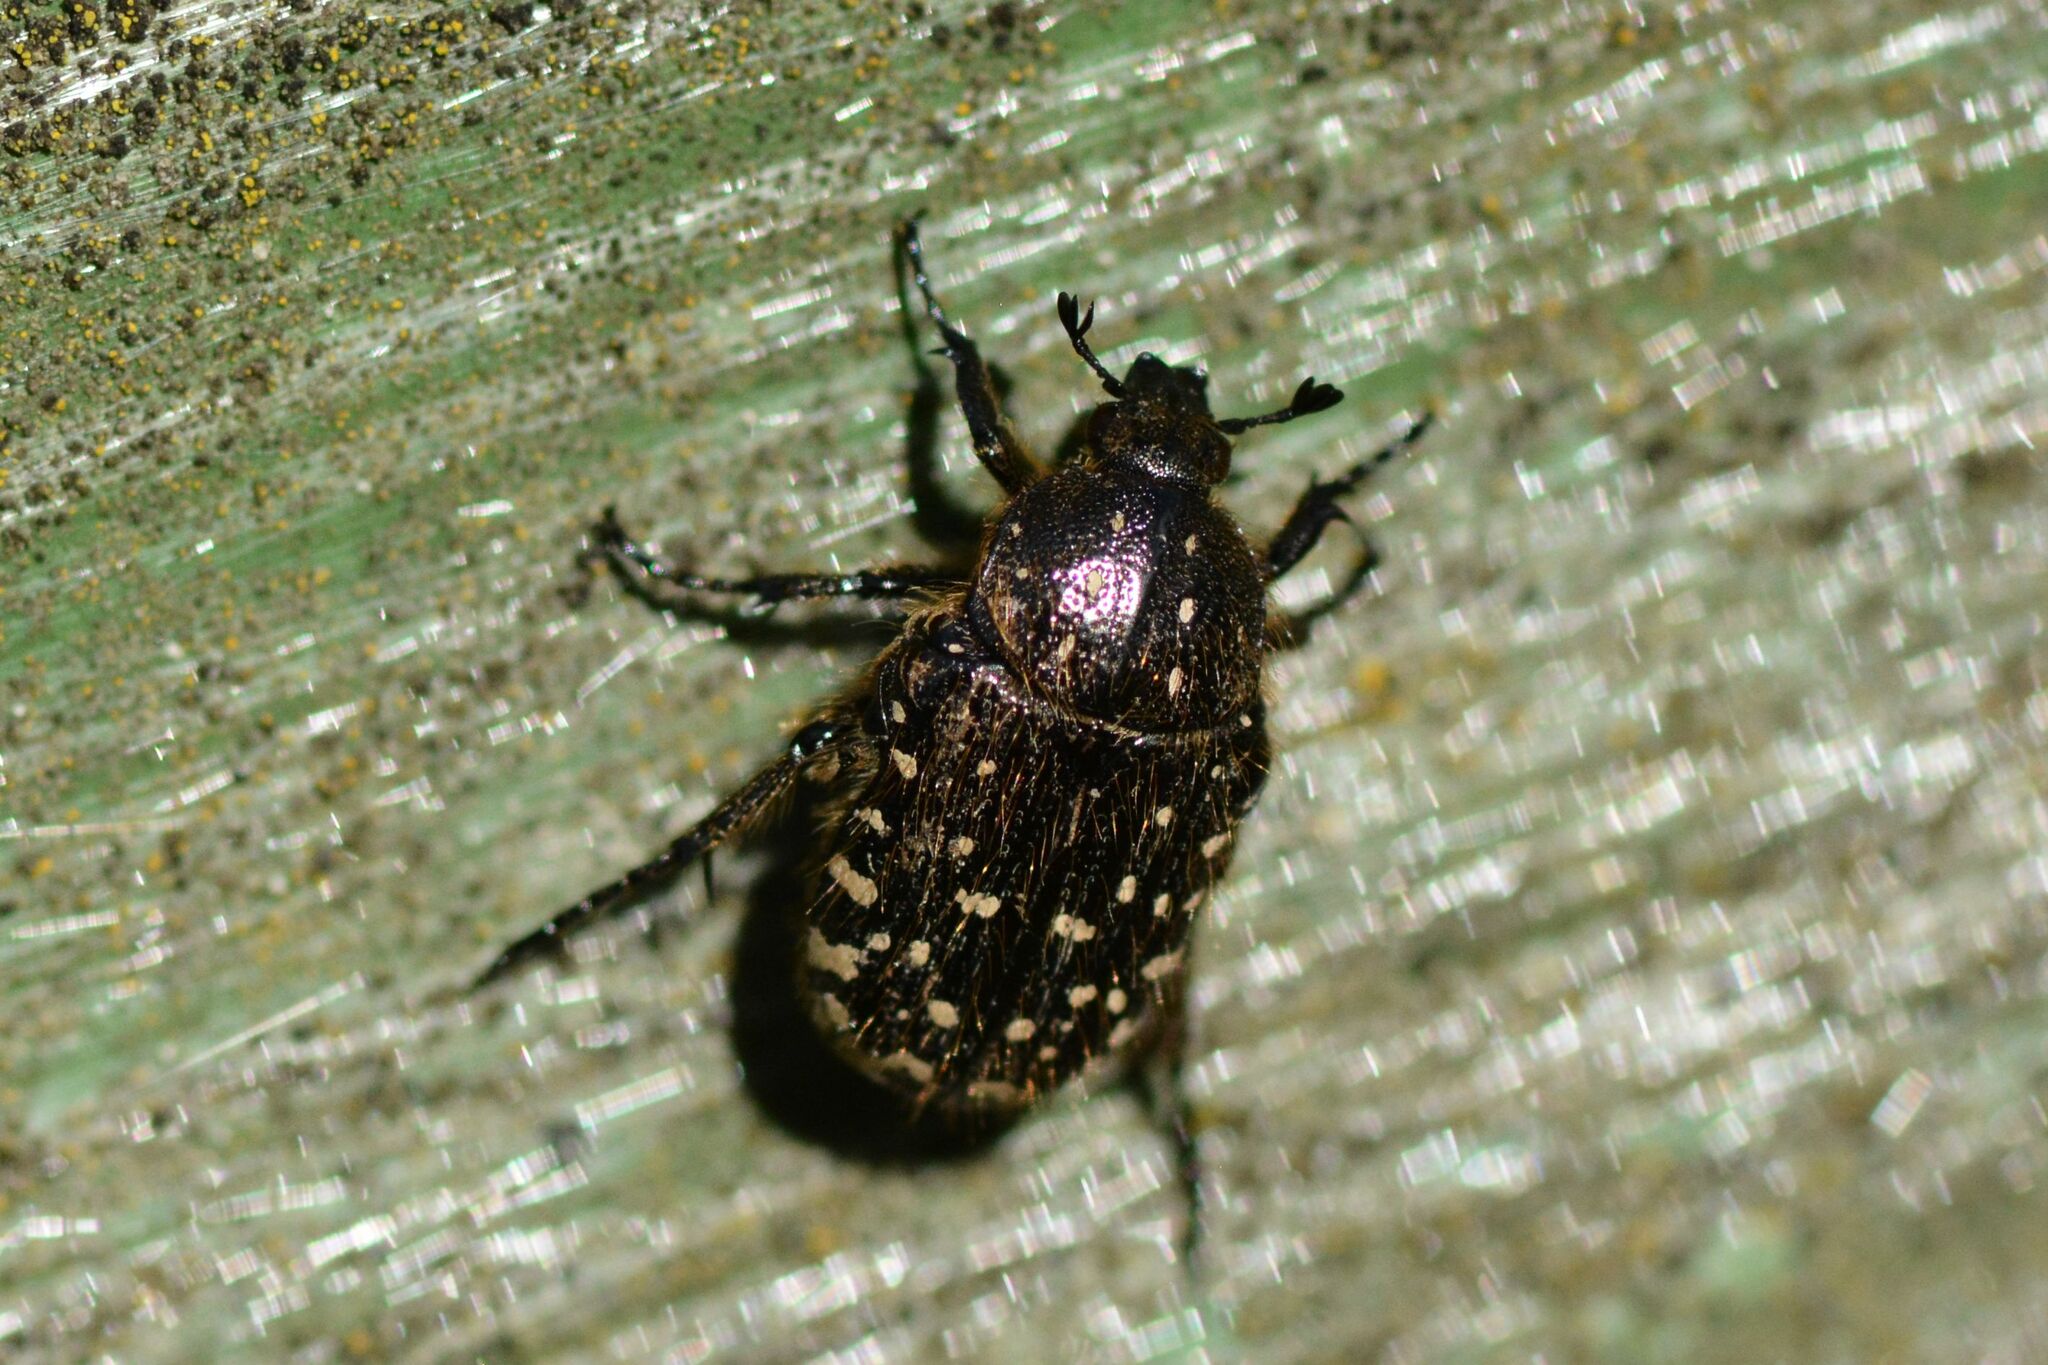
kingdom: Animalia
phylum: Arthropoda
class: Insecta
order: Coleoptera
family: Scarabaeidae
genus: Oxythyrea
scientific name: Oxythyrea funesta
